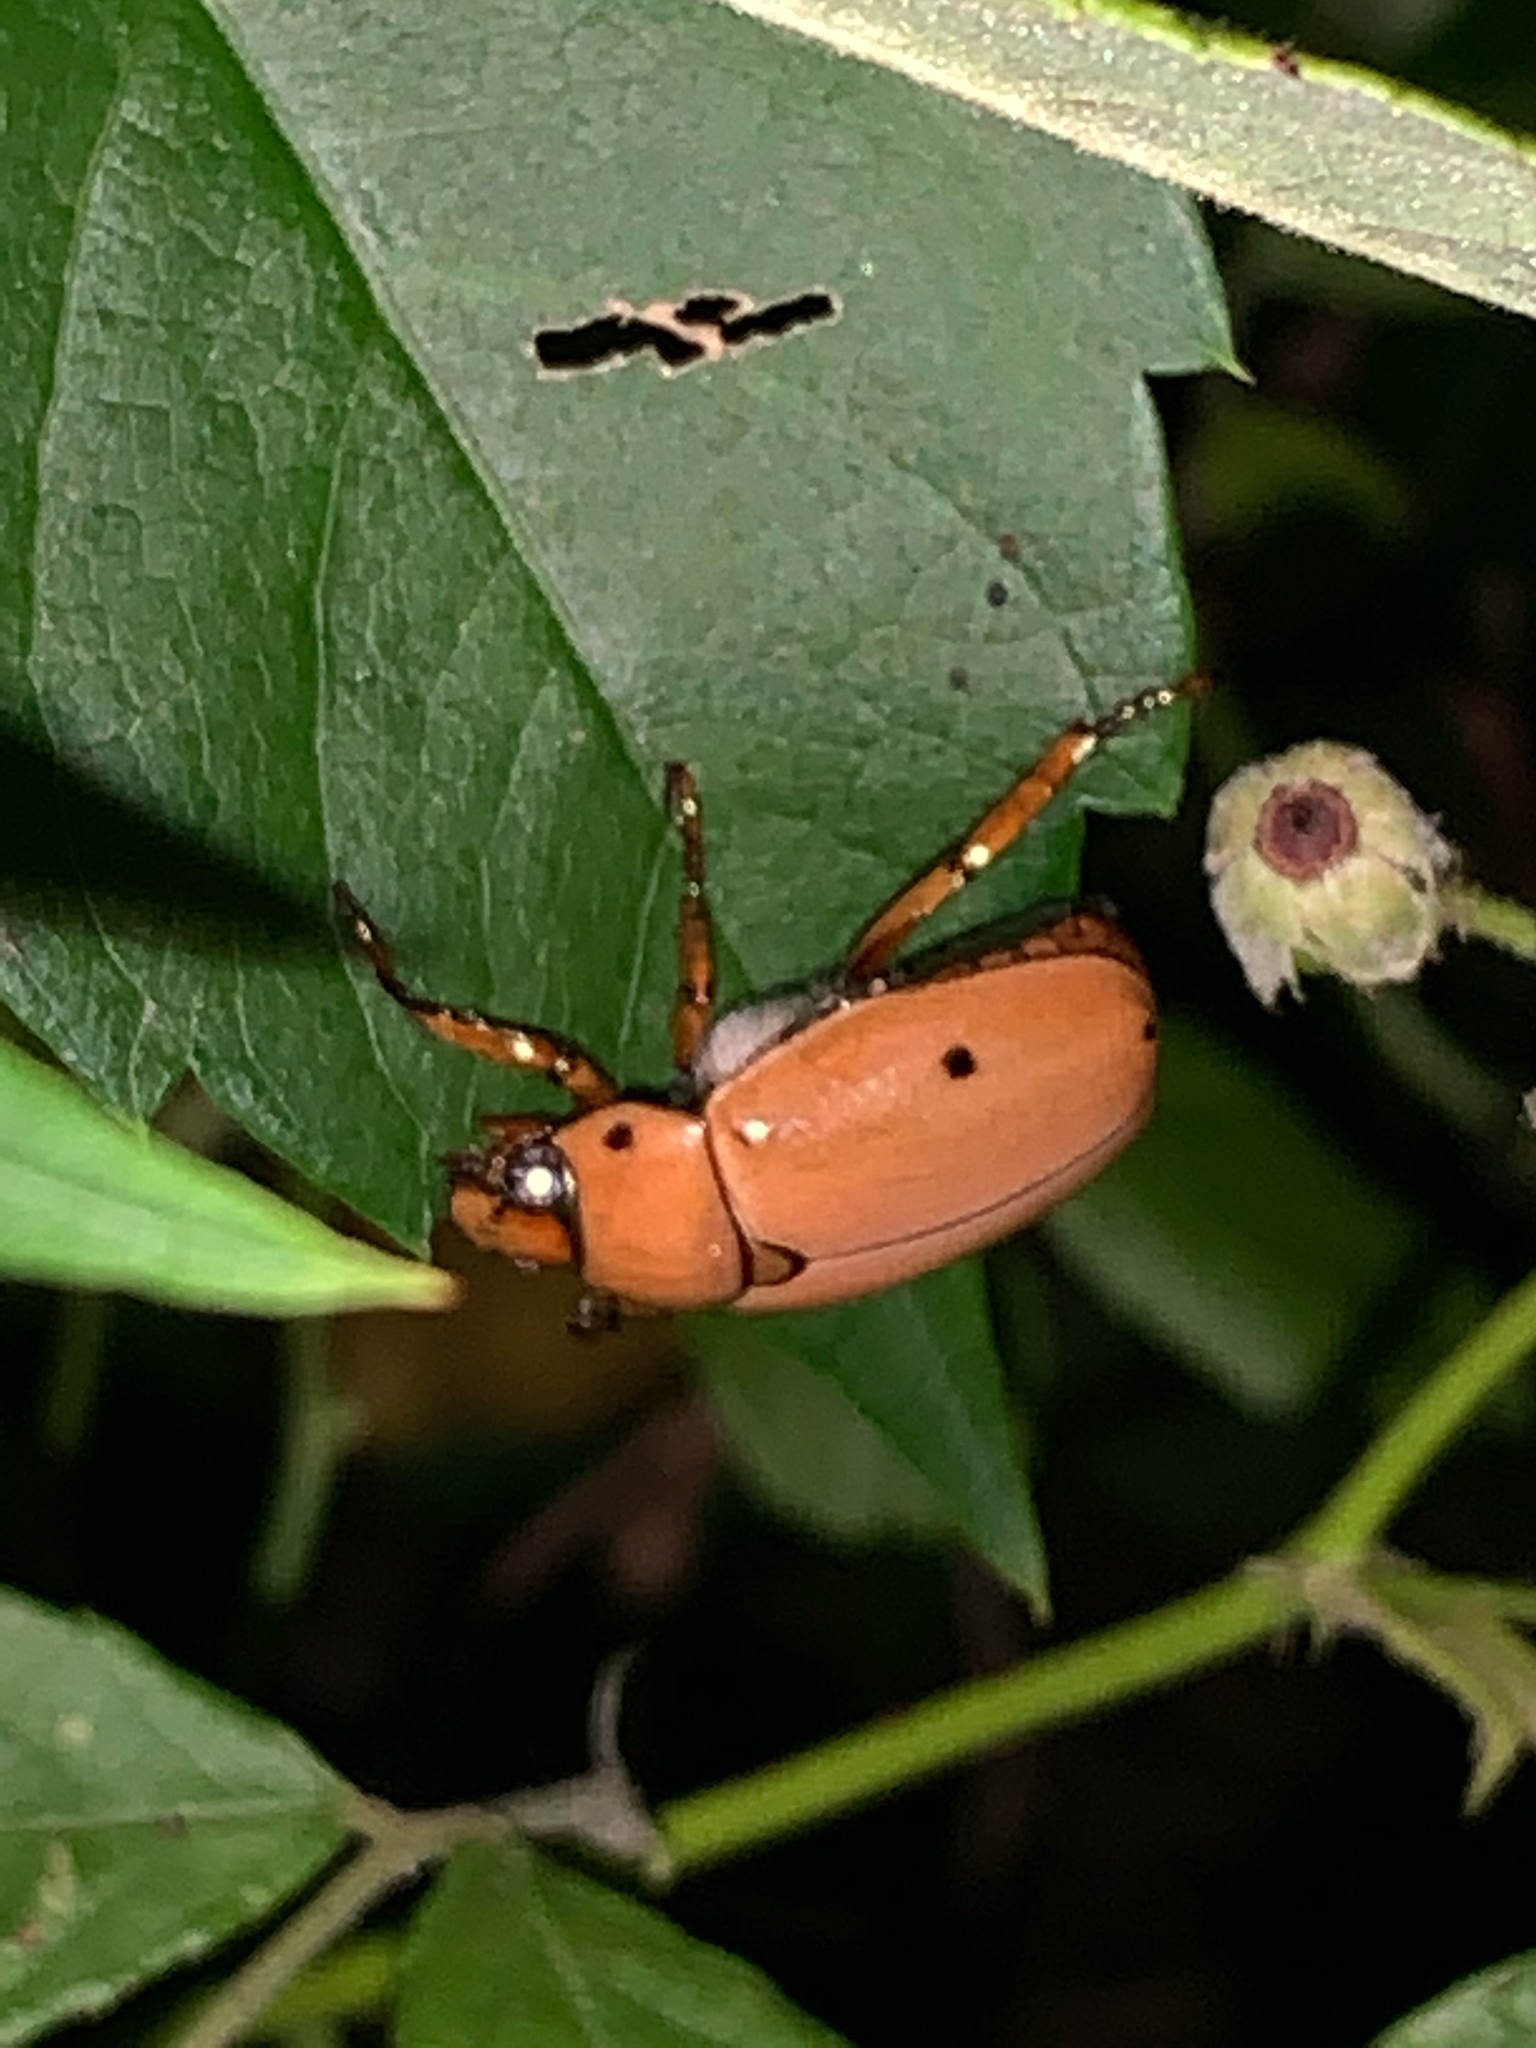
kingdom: Animalia
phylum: Arthropoda
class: Insecta
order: Coleoptera
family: Scarabaeidae
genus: Pelidnota
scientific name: Pelidnota punctata
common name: Grapevine beetle
